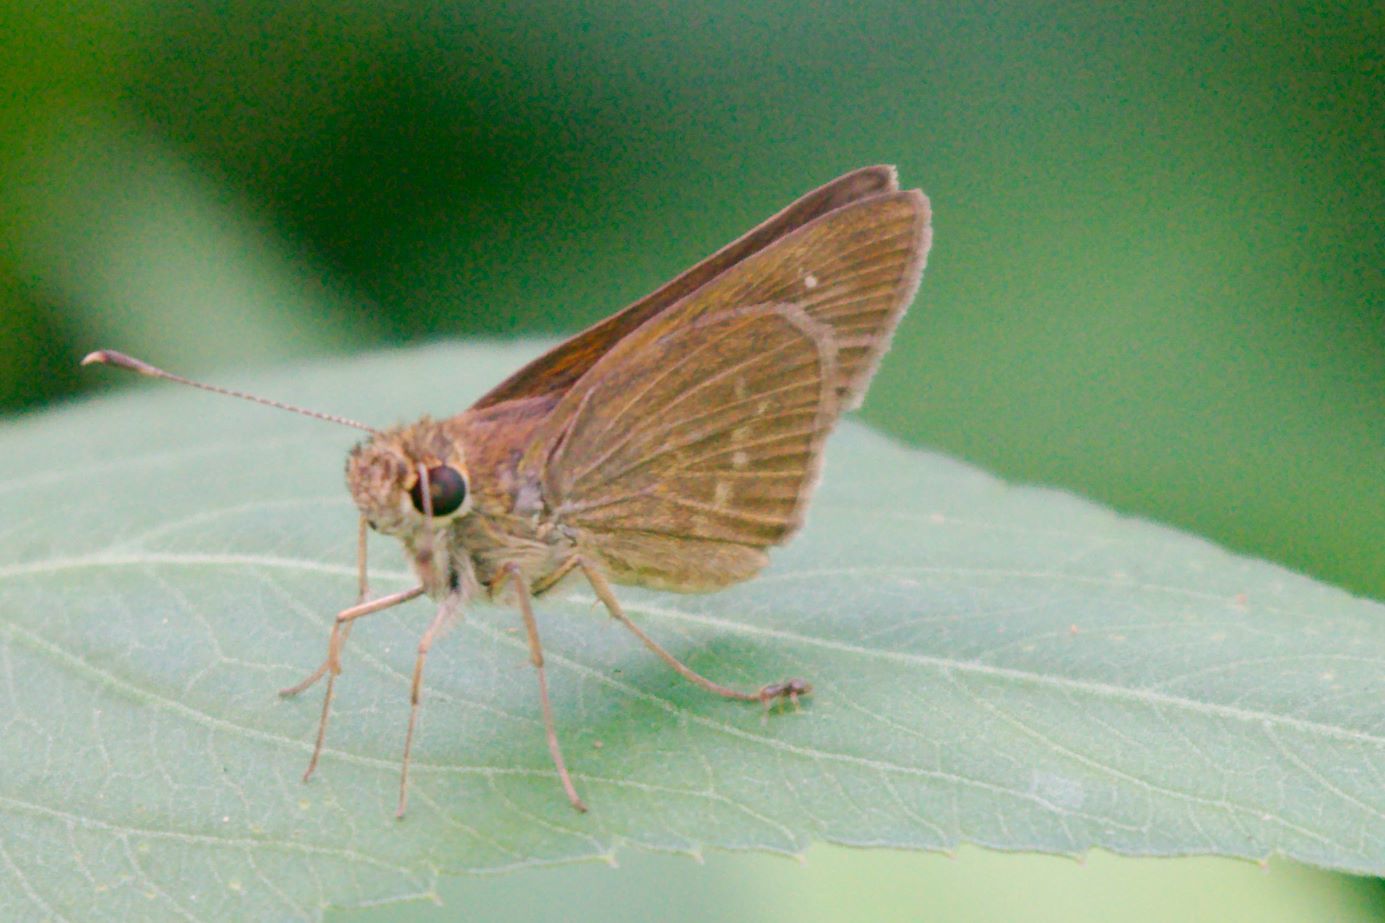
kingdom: Animalia
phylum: Arthropoda
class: Insecta
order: Lepidoptera
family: Hesperiidae
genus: Cymaenes
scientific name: Cymaenes tripunctus
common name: Dingy dotted skipper
